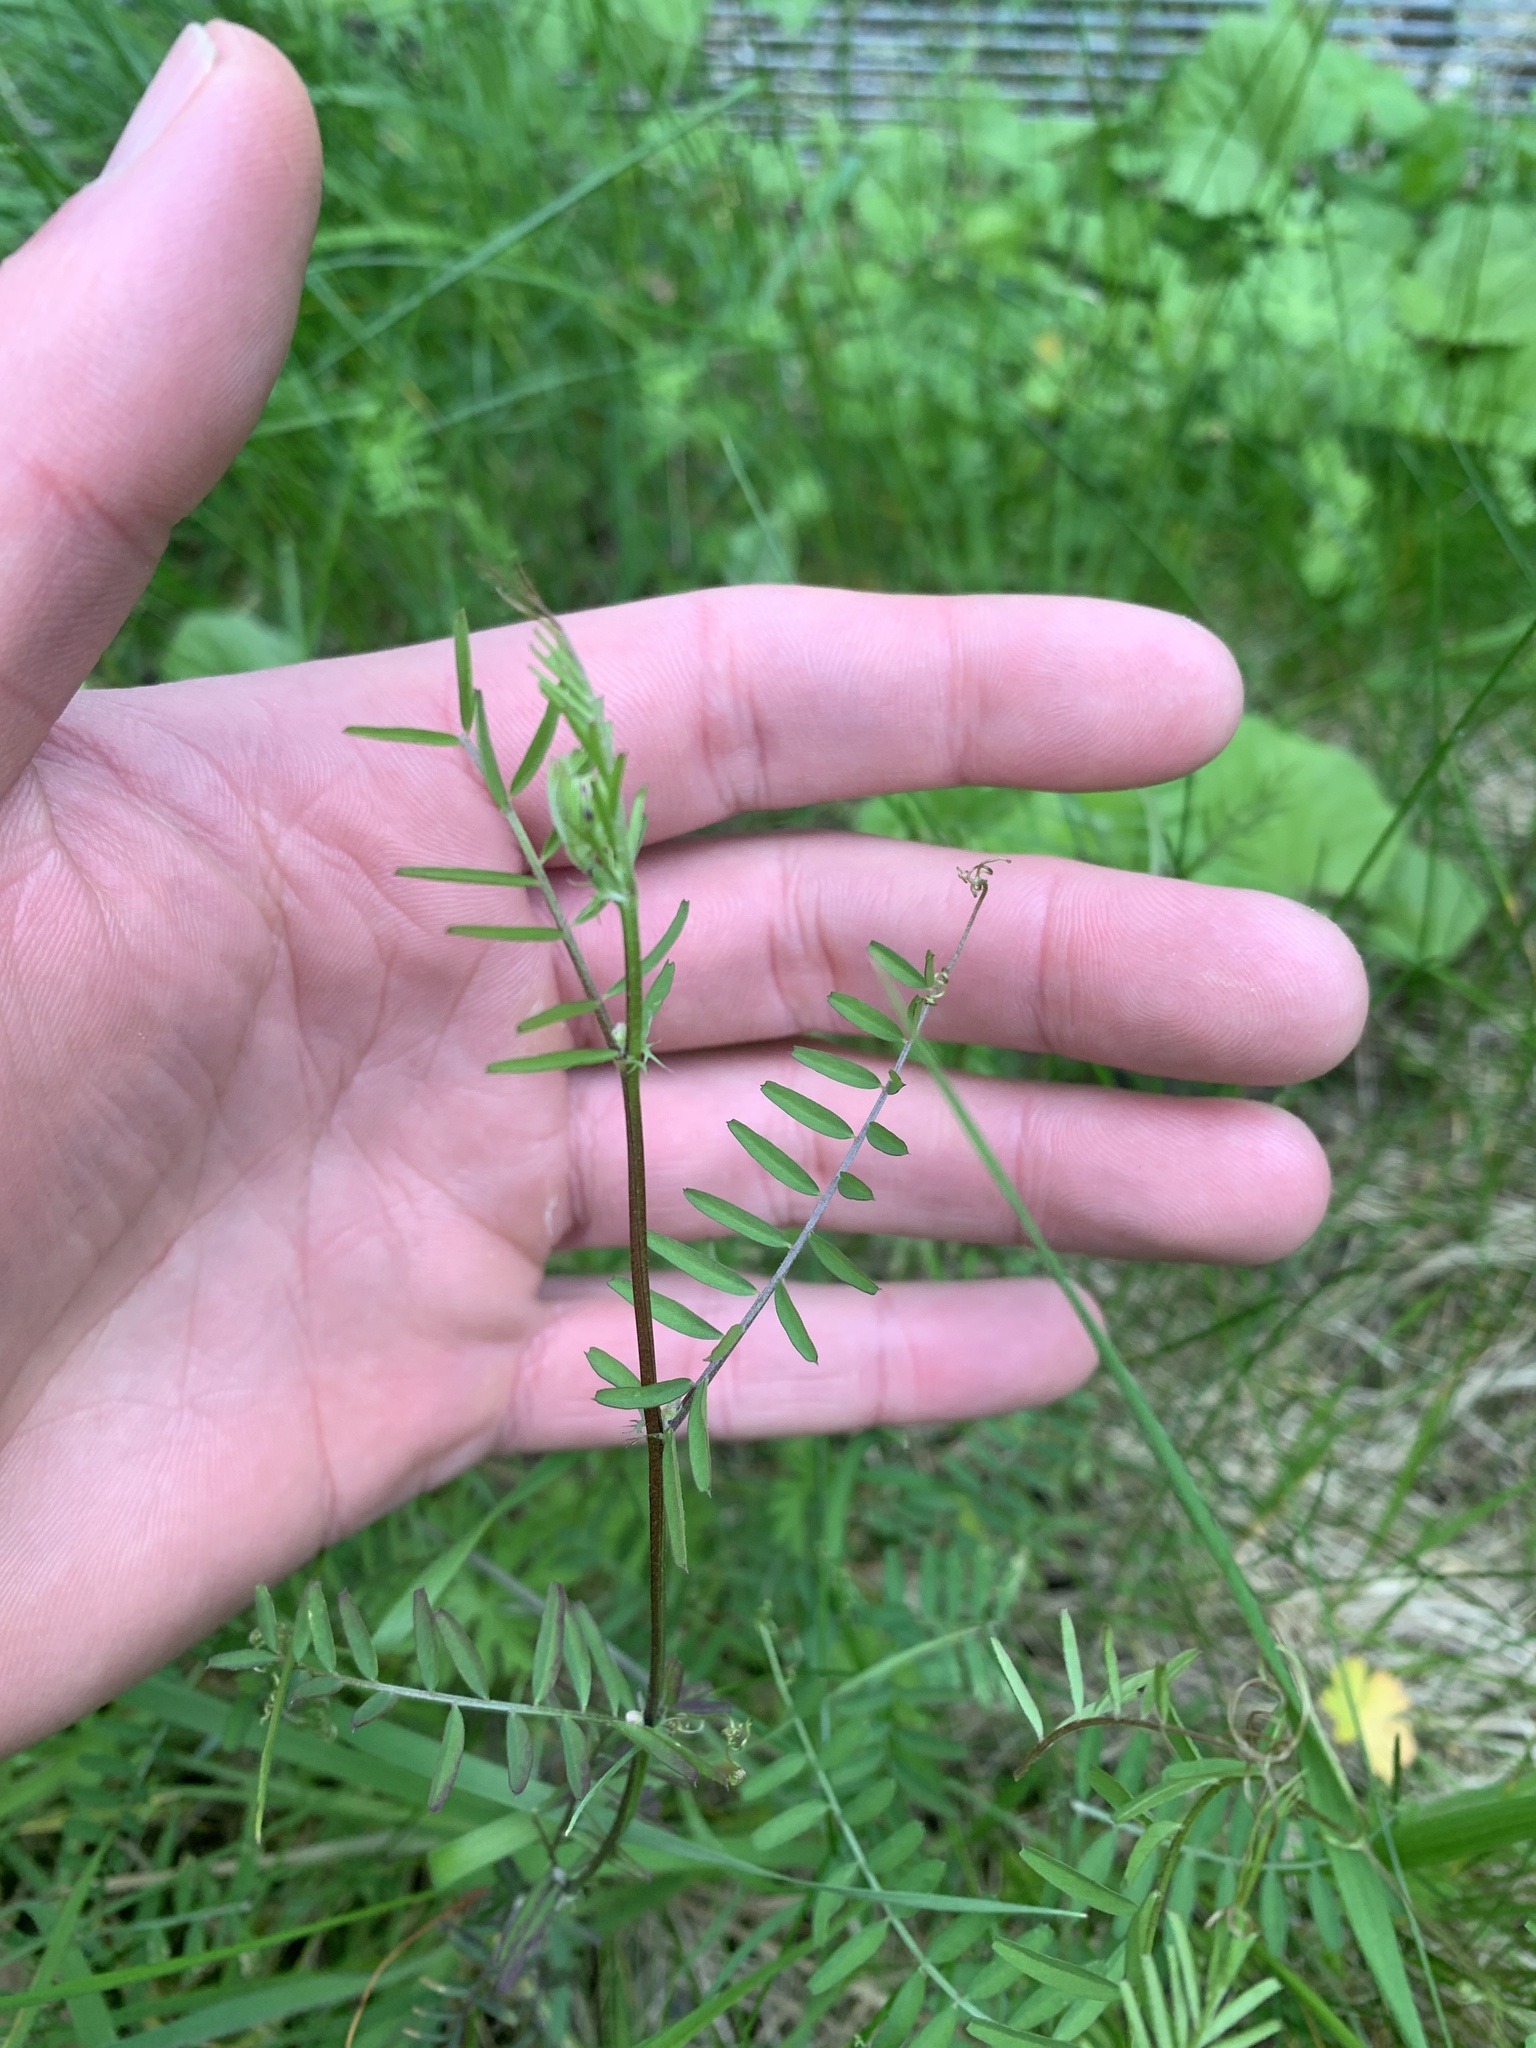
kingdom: Plantae
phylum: Tracheophyta
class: Magnoliopsida
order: Fabales
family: Fabaceae
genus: Vicia
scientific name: Vicia hirsuta
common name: Tiny vetch
